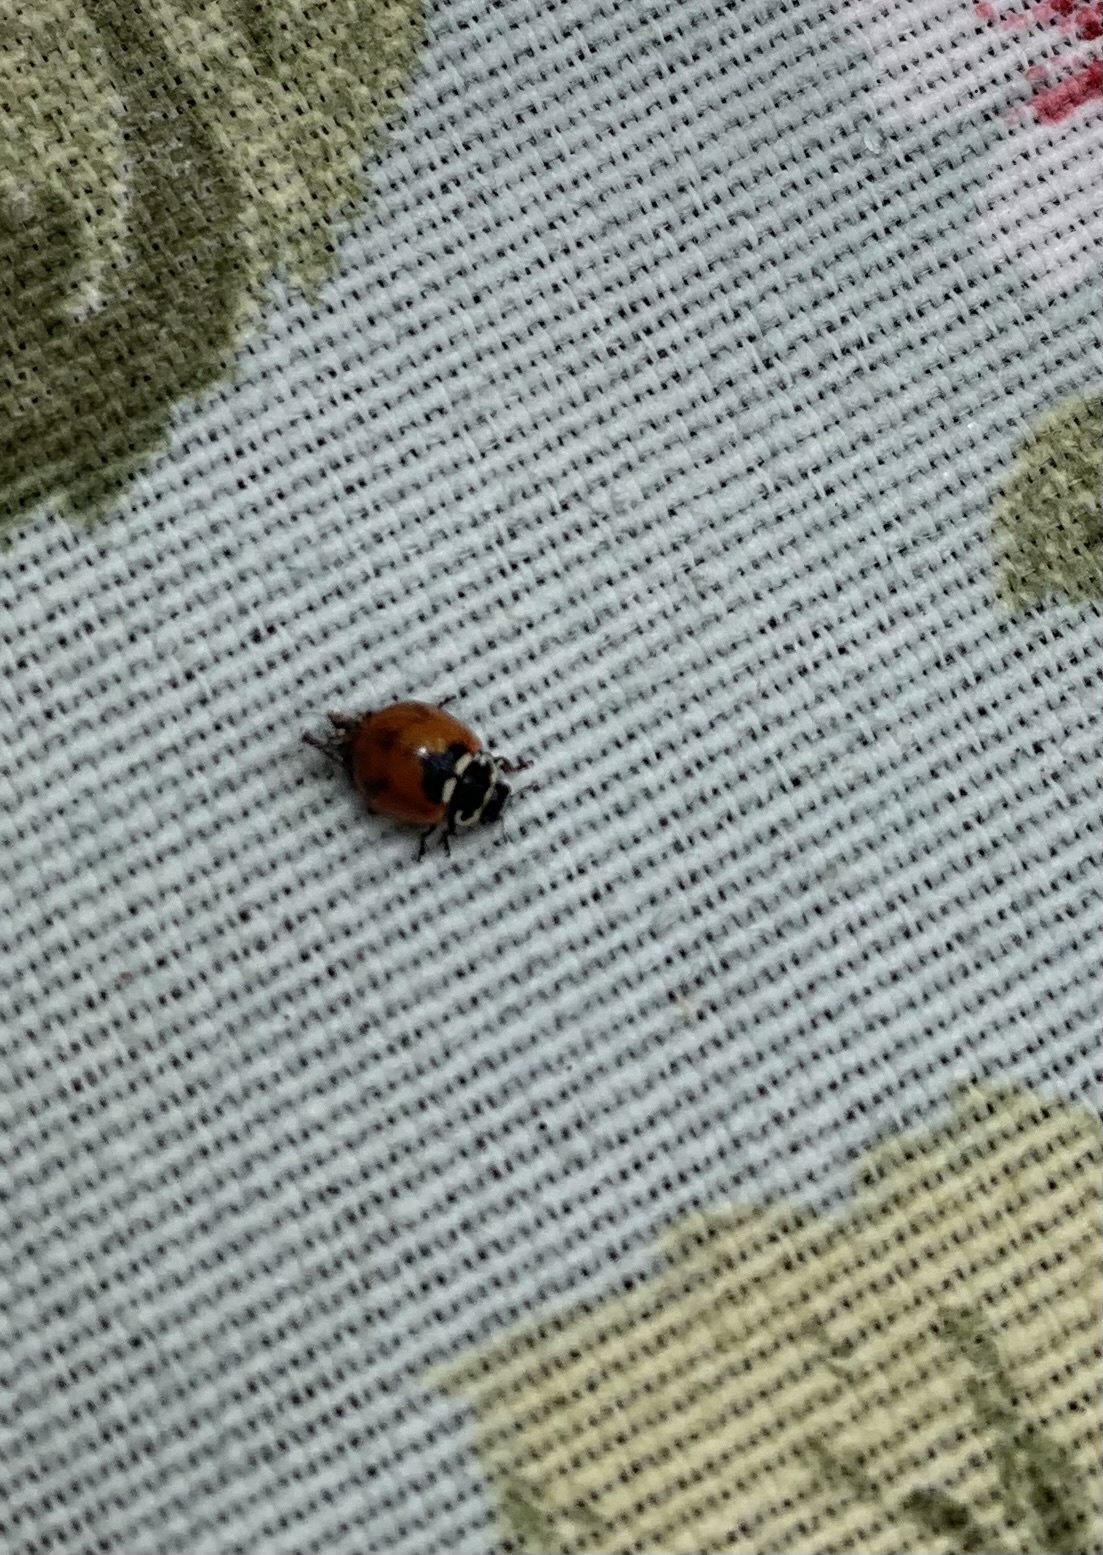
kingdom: Animalia
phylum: Arthropoda
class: Insecta
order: Coleoptera
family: Coccinellidae
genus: Adalia
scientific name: Adalia deficiens
